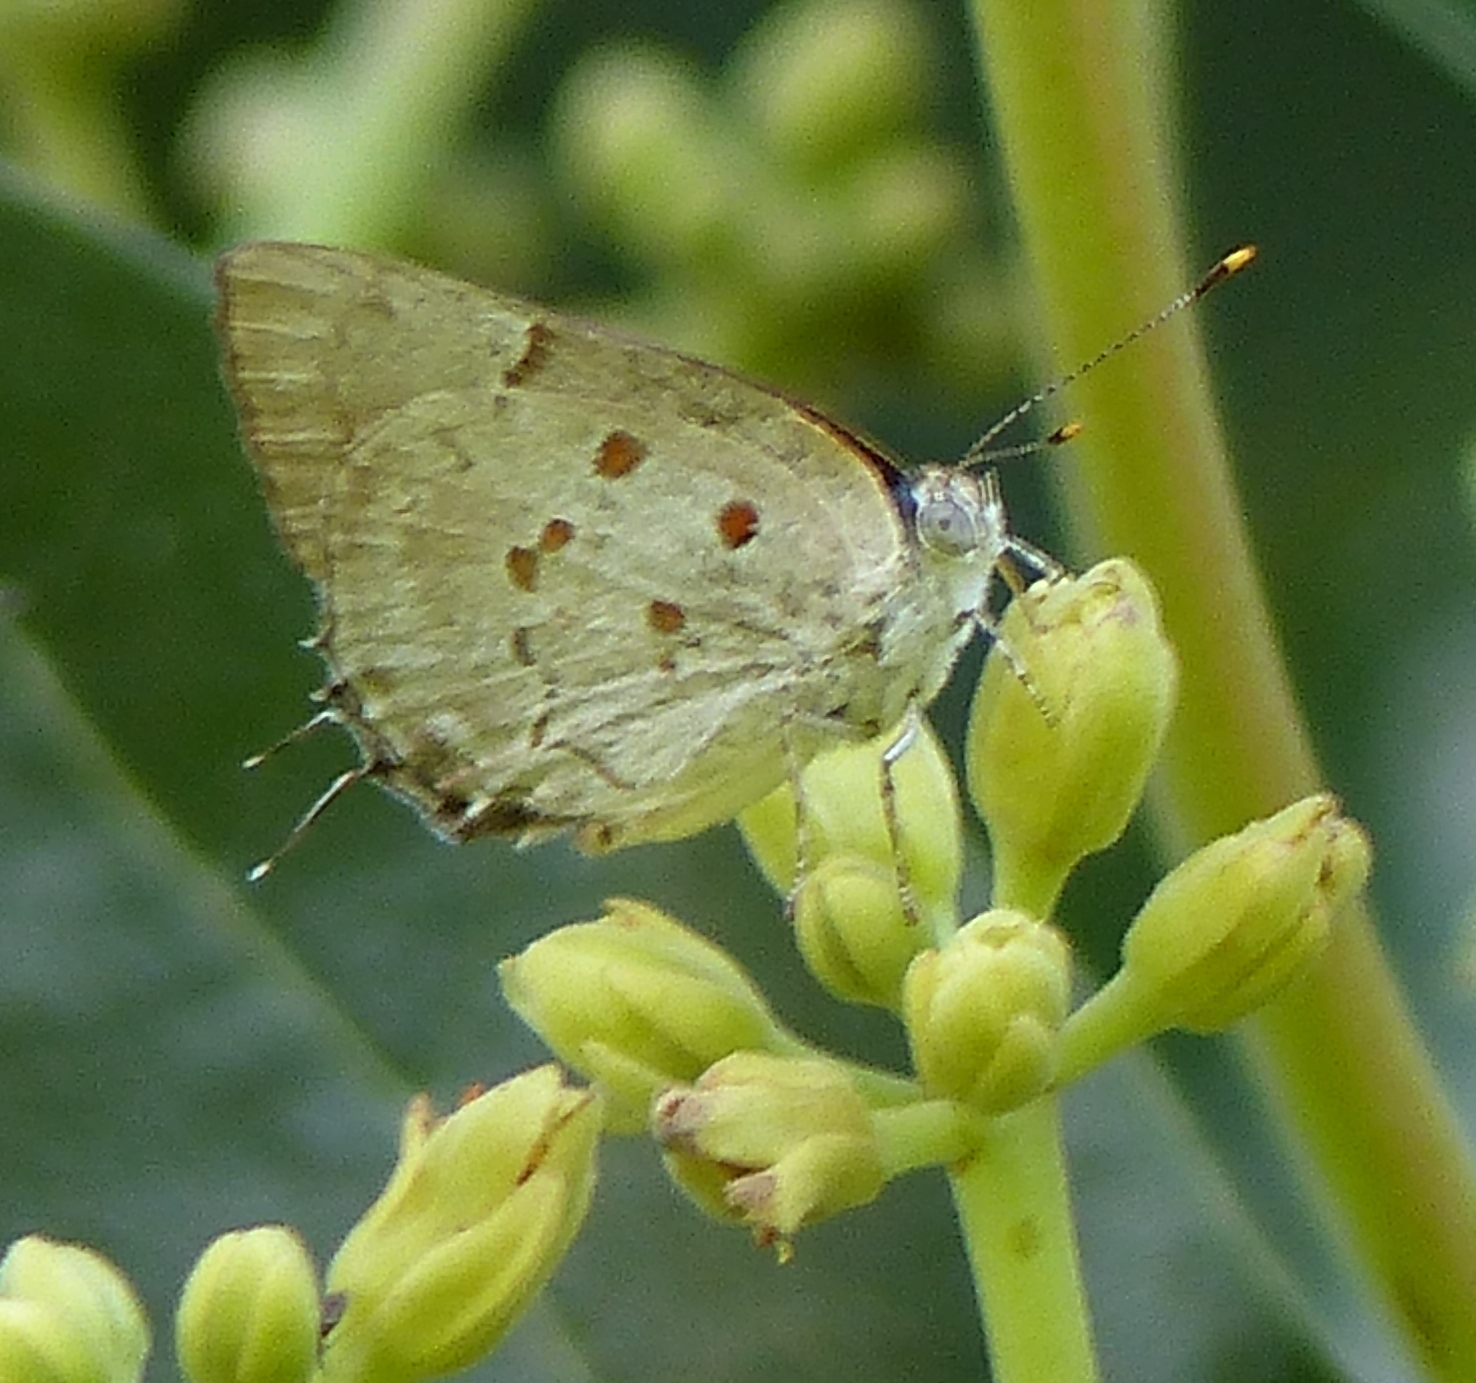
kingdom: Animalia
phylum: Arthropoda
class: Insecta
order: Lepidoptera
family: Lycaenidae
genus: Tmolus
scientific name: Tmolus echion
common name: Red-spotted hairstreak
